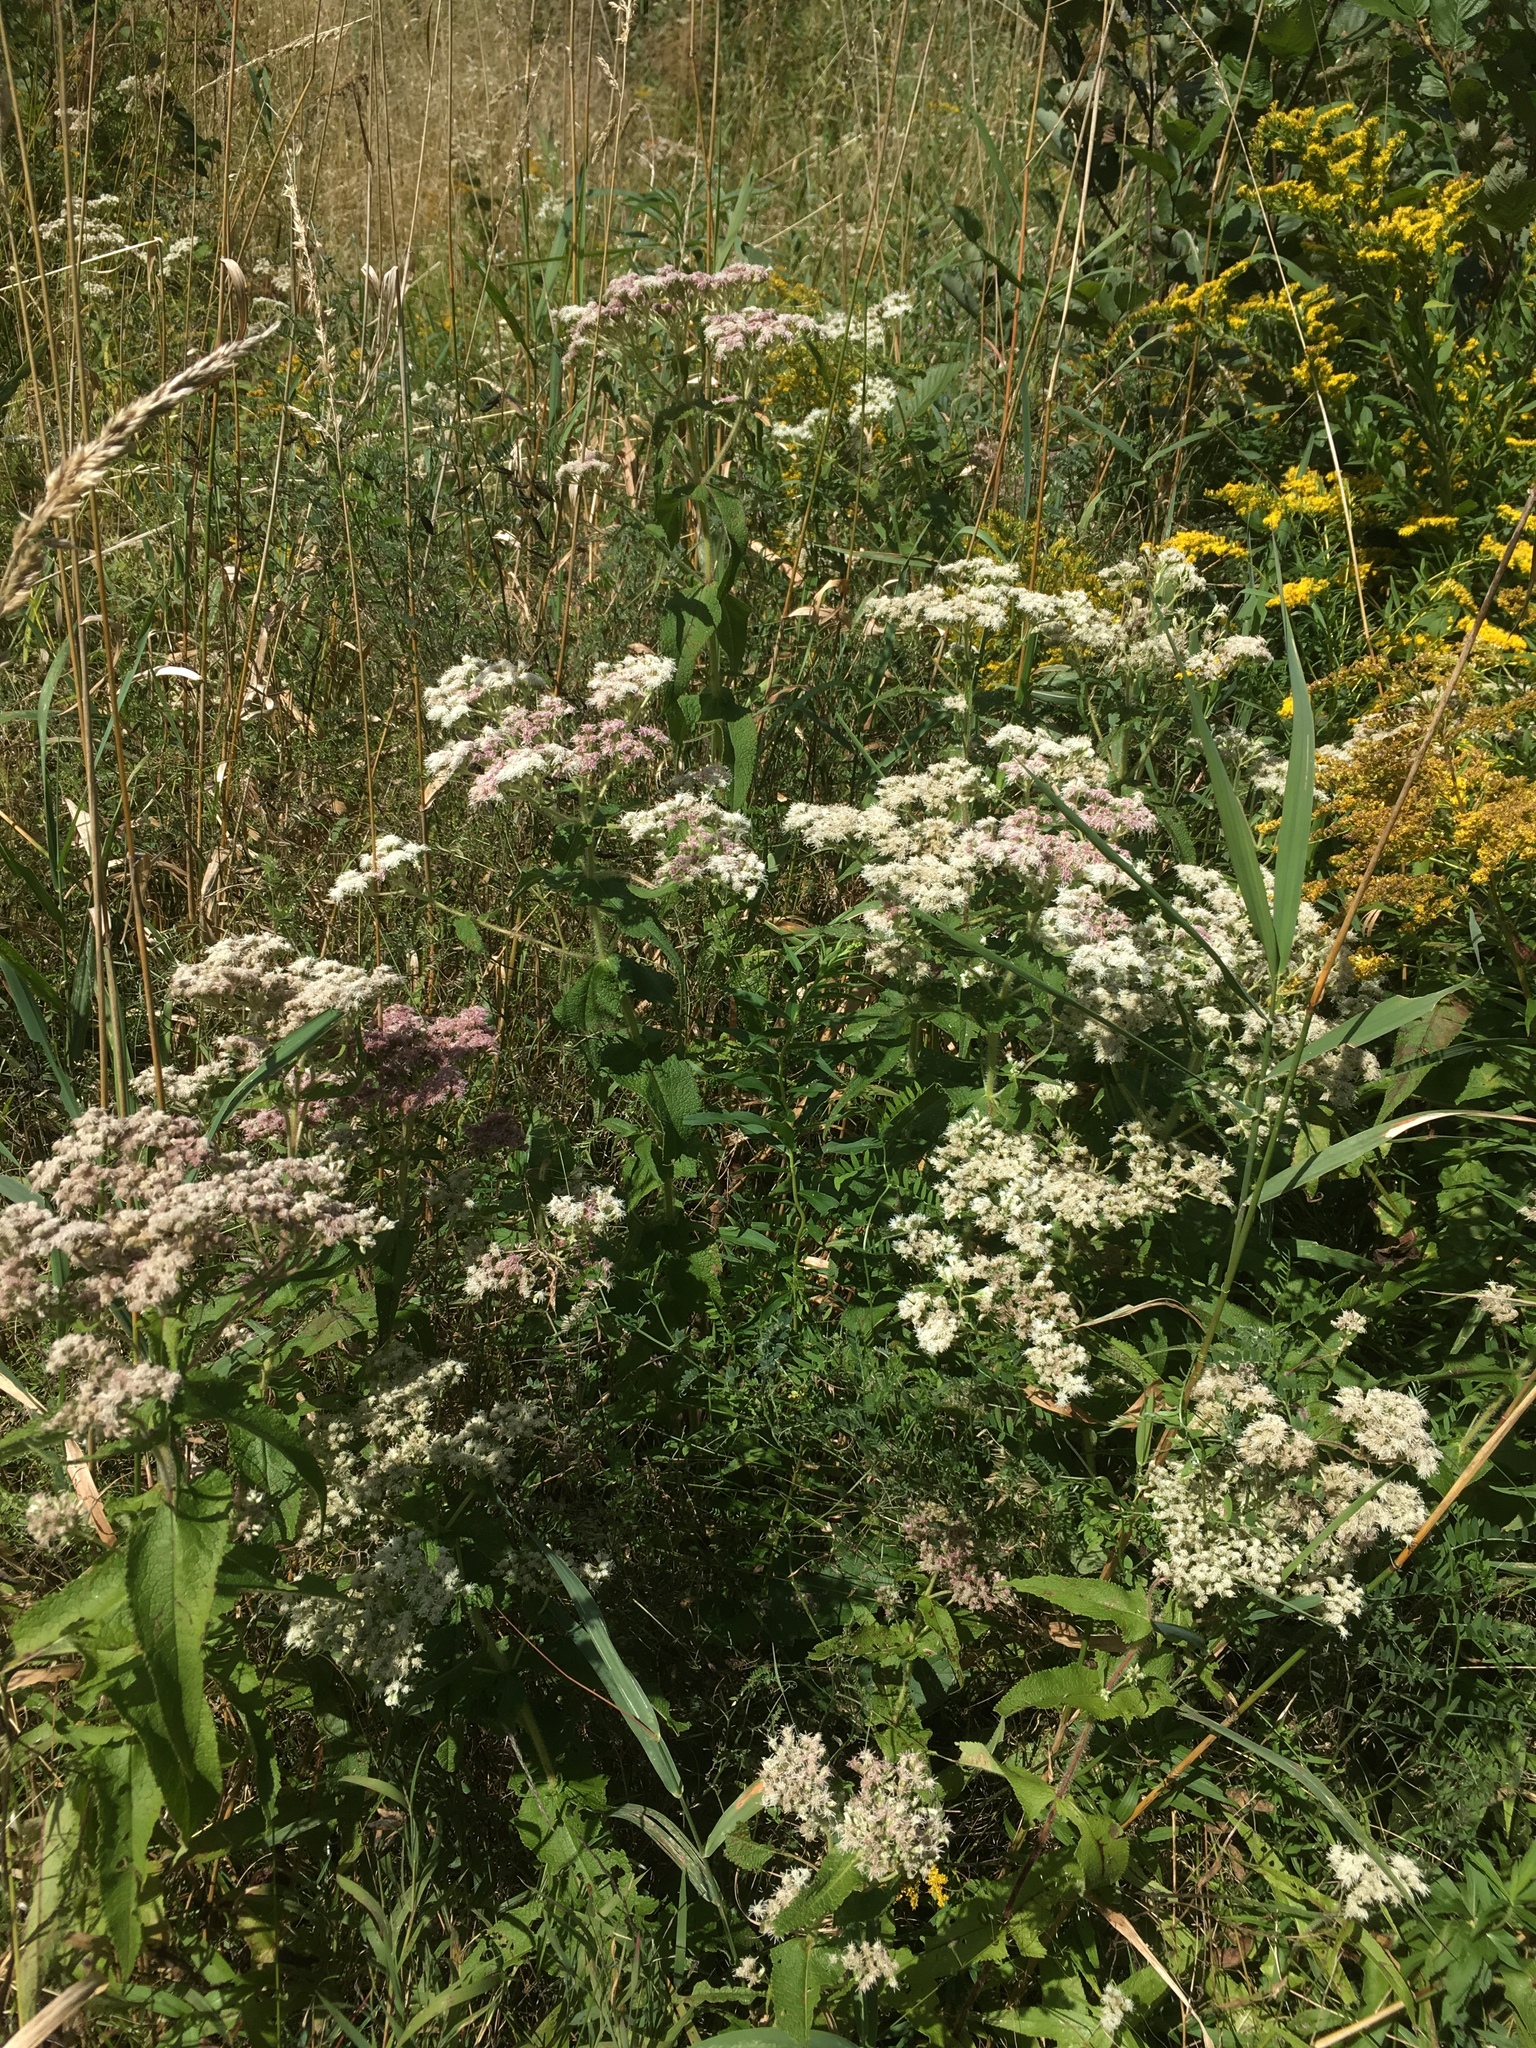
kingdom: Plantae
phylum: Tracheophyta
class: Magnoliopsida
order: Asterales
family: Asteraceae
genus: Eupatorium
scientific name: Eupatorium perfoliatum
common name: Boneset
